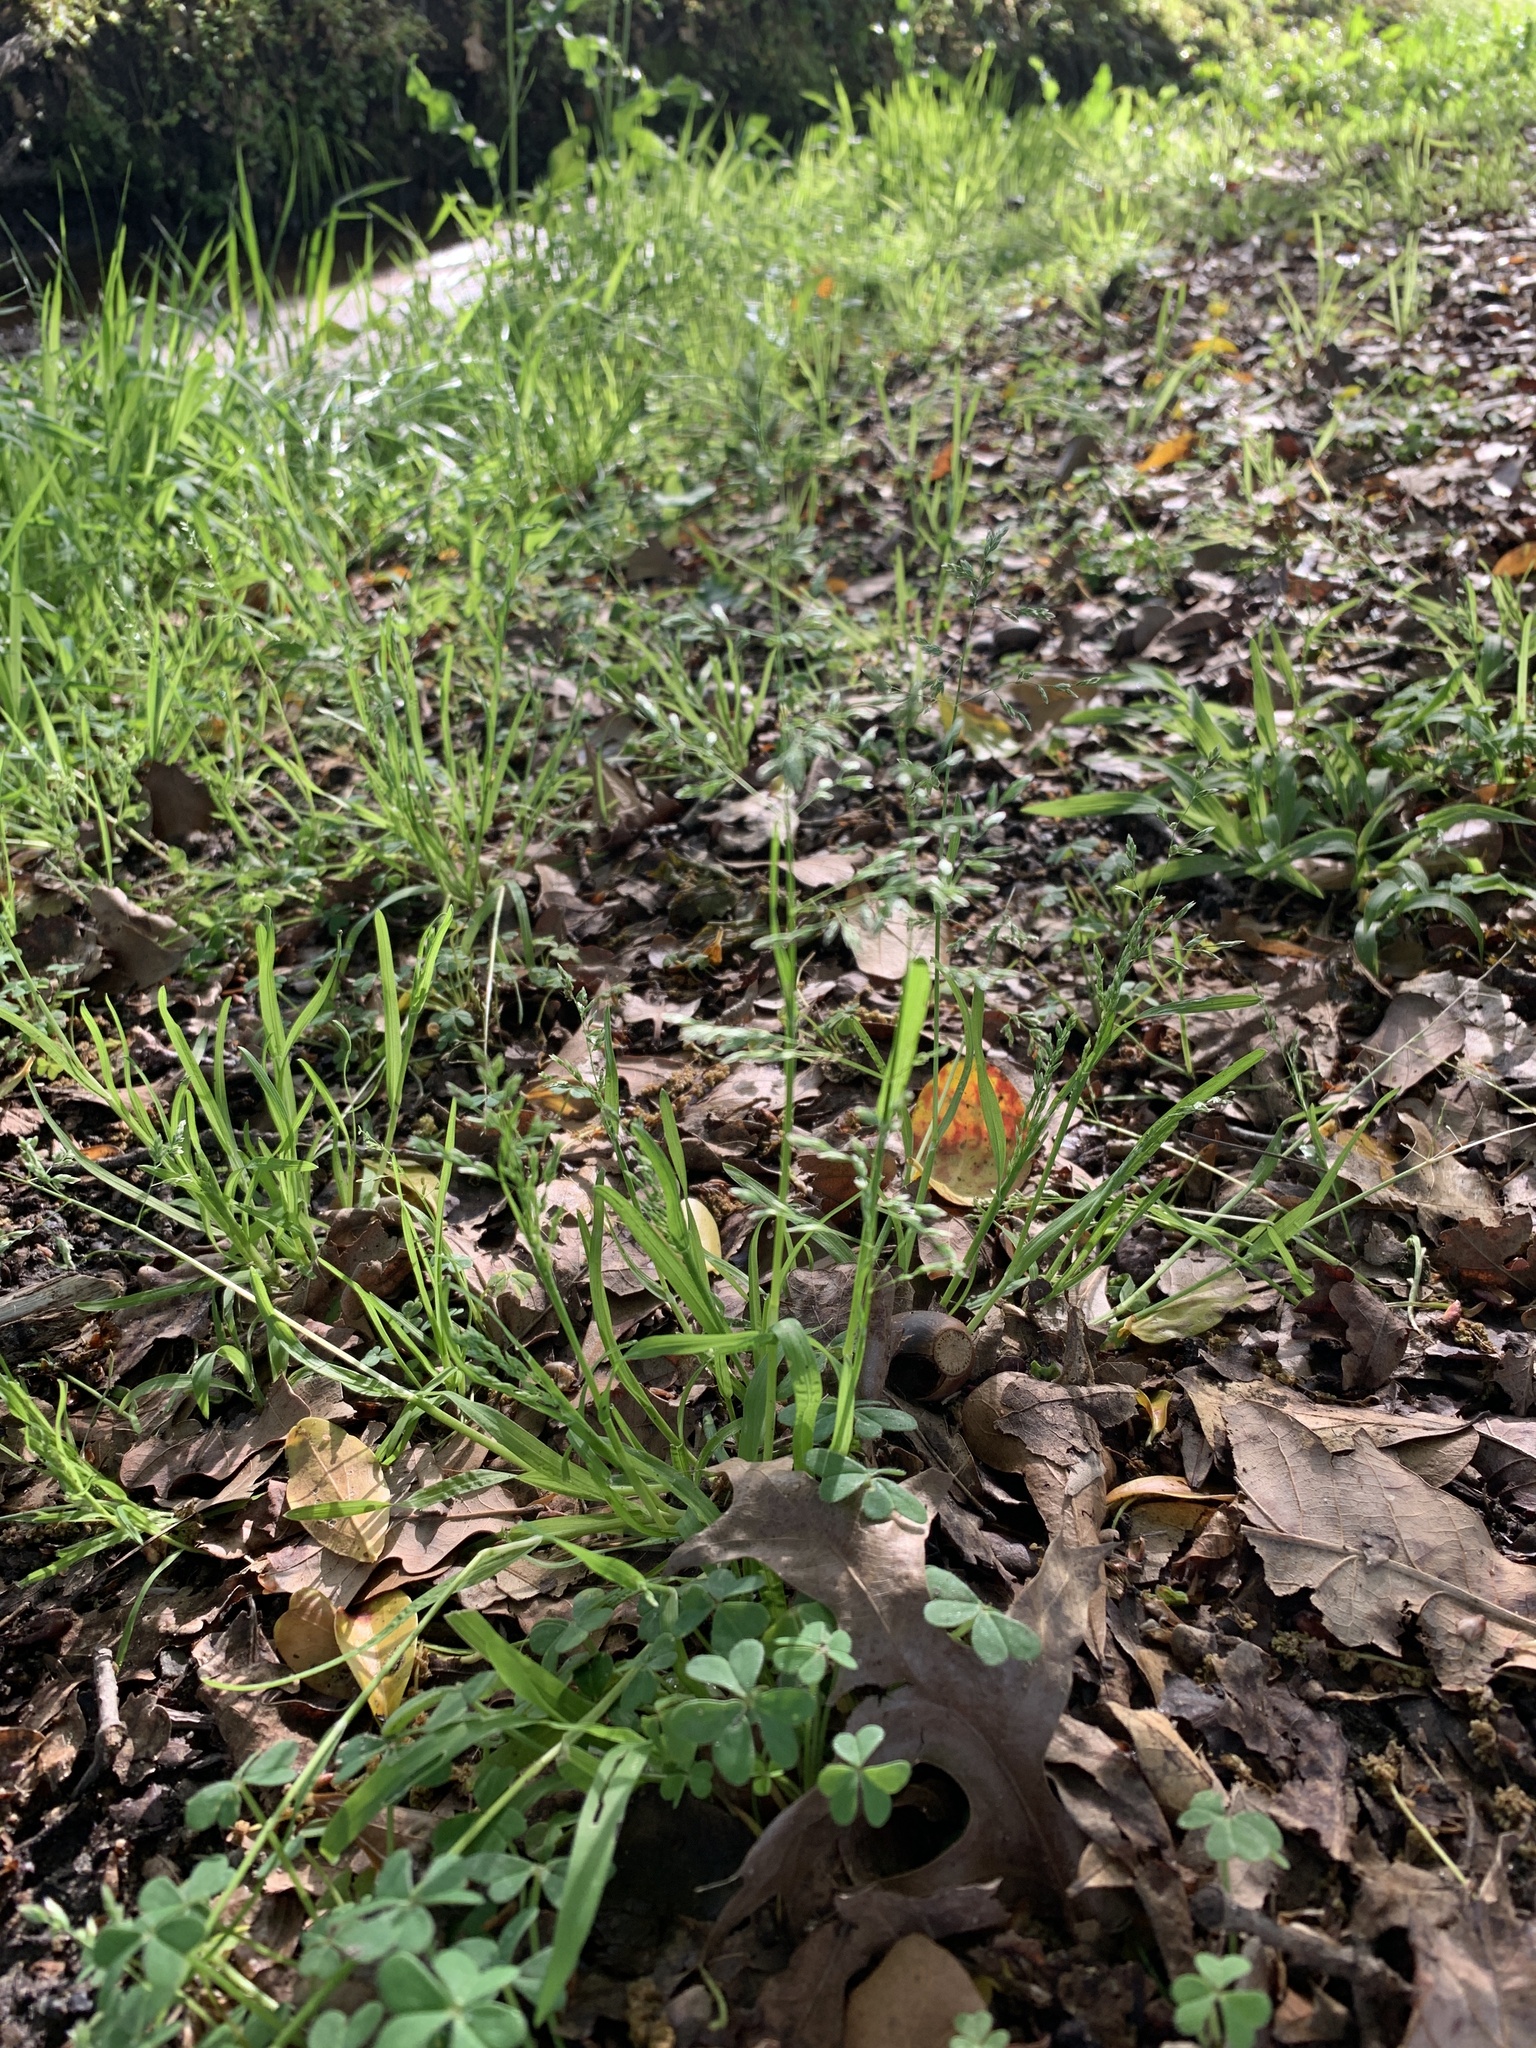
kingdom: Plantae
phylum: Tracheophyta
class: Liliopsida
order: Poales
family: Poaceae
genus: Poa
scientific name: Poa annua
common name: Annual bluegrass
